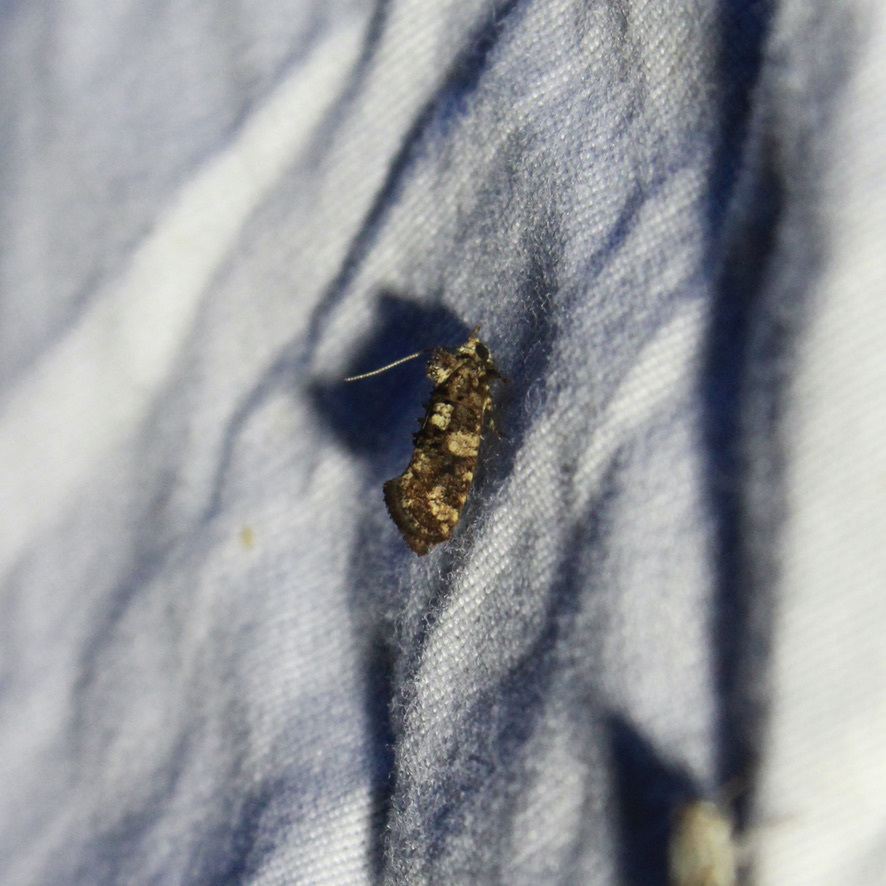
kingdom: Animalia
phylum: Arthropoda
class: Insecta
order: Lepidoptera
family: Tineidae
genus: Acrolophus
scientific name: Acrolophus cressoni
